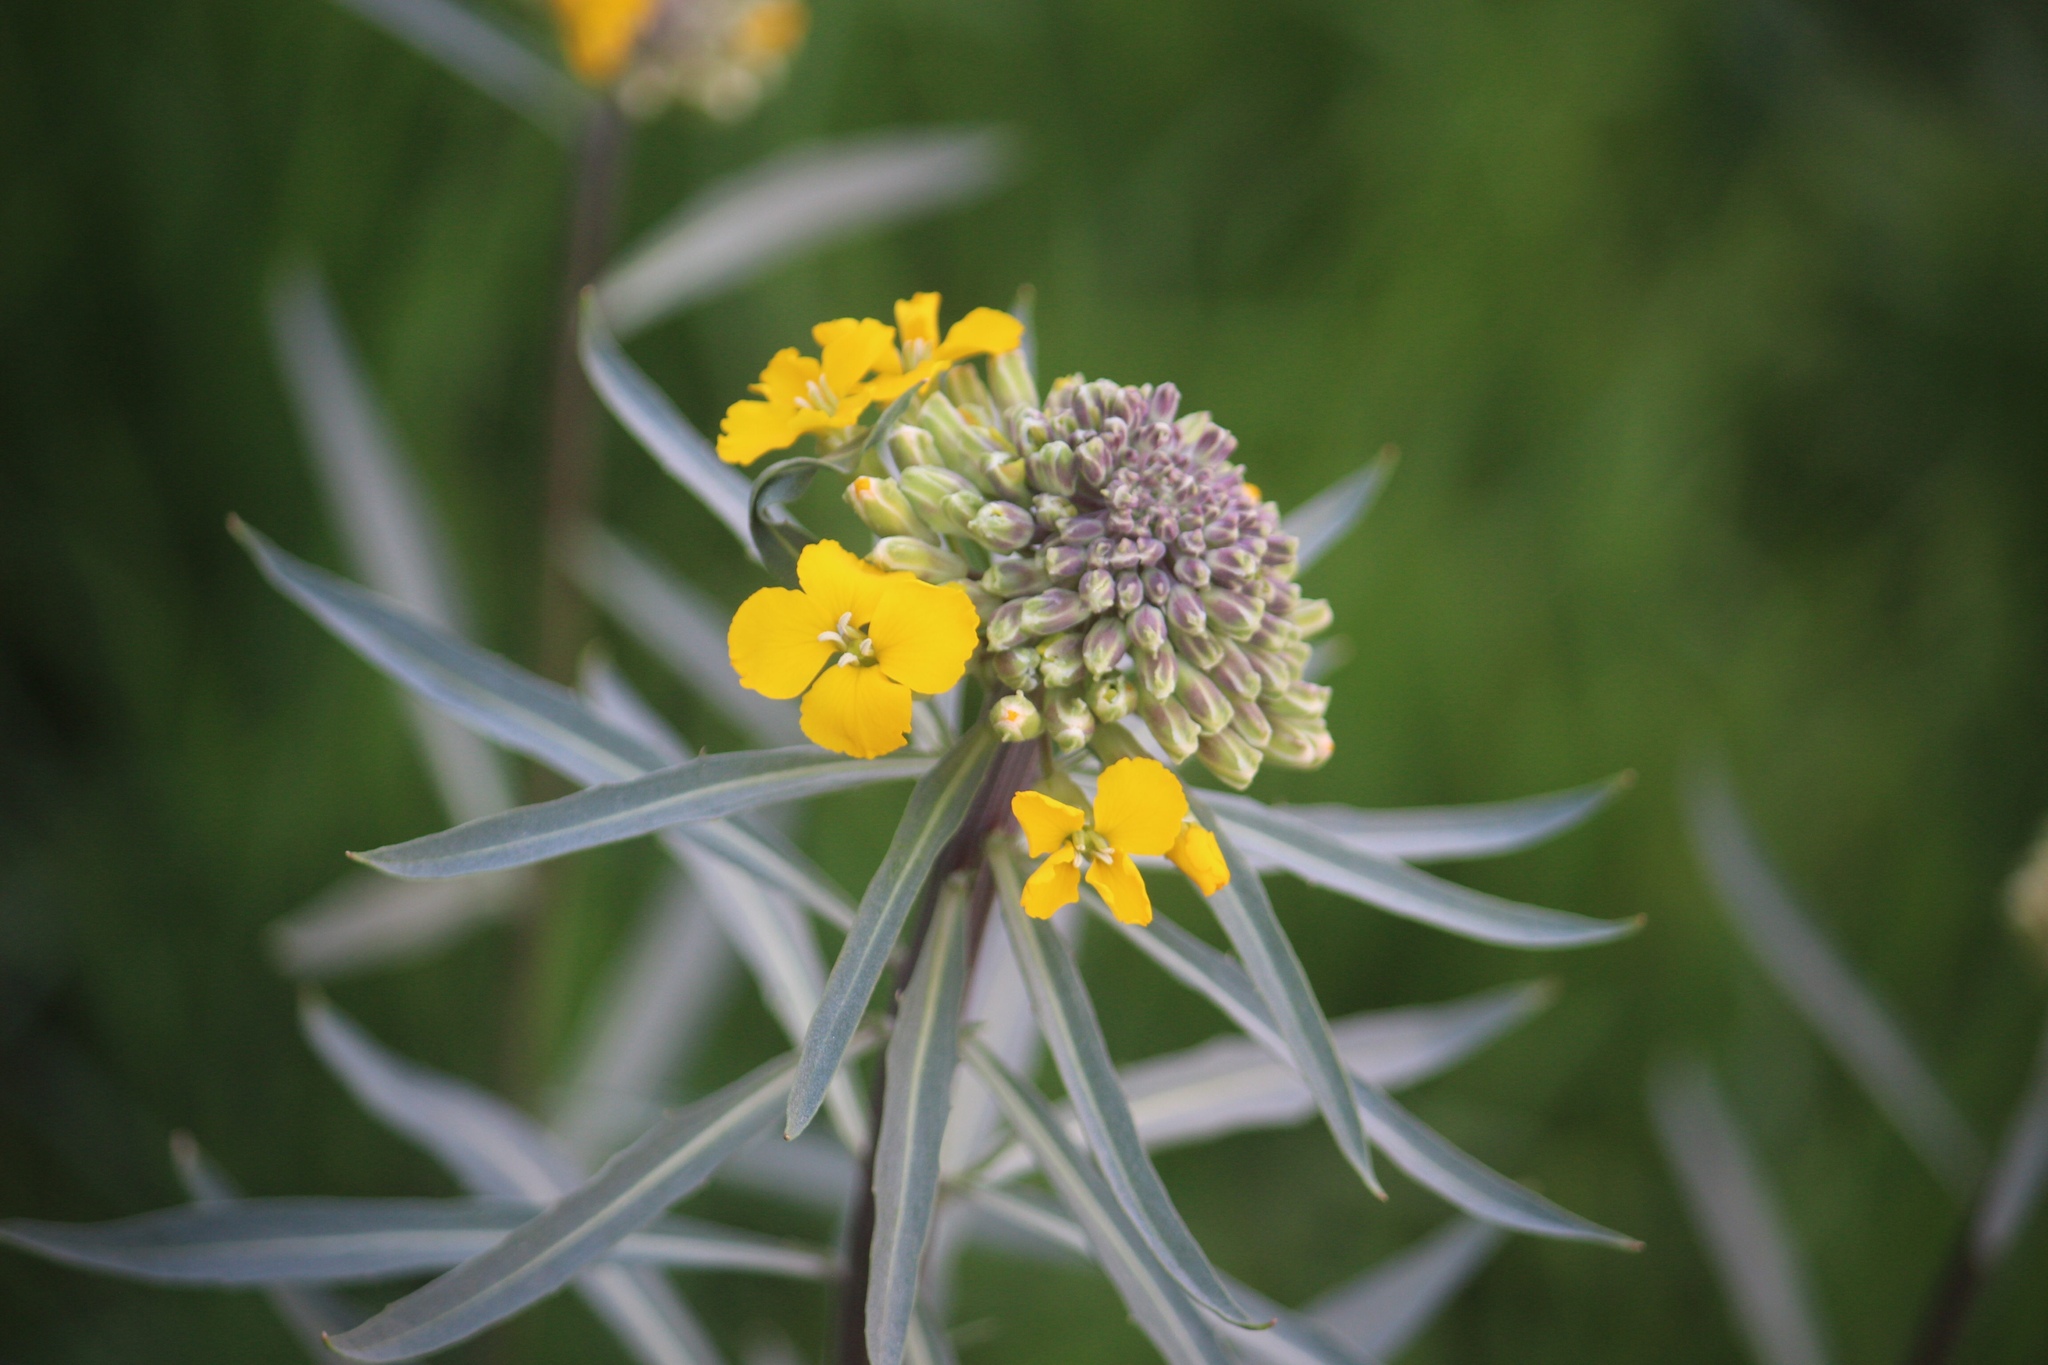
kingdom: Plantae
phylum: Tracheophyta
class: Magnoliopsida
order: Brassicales
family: Brassicaceae
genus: Erysimum
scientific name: Erysimum capitatum
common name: Western wallflower
